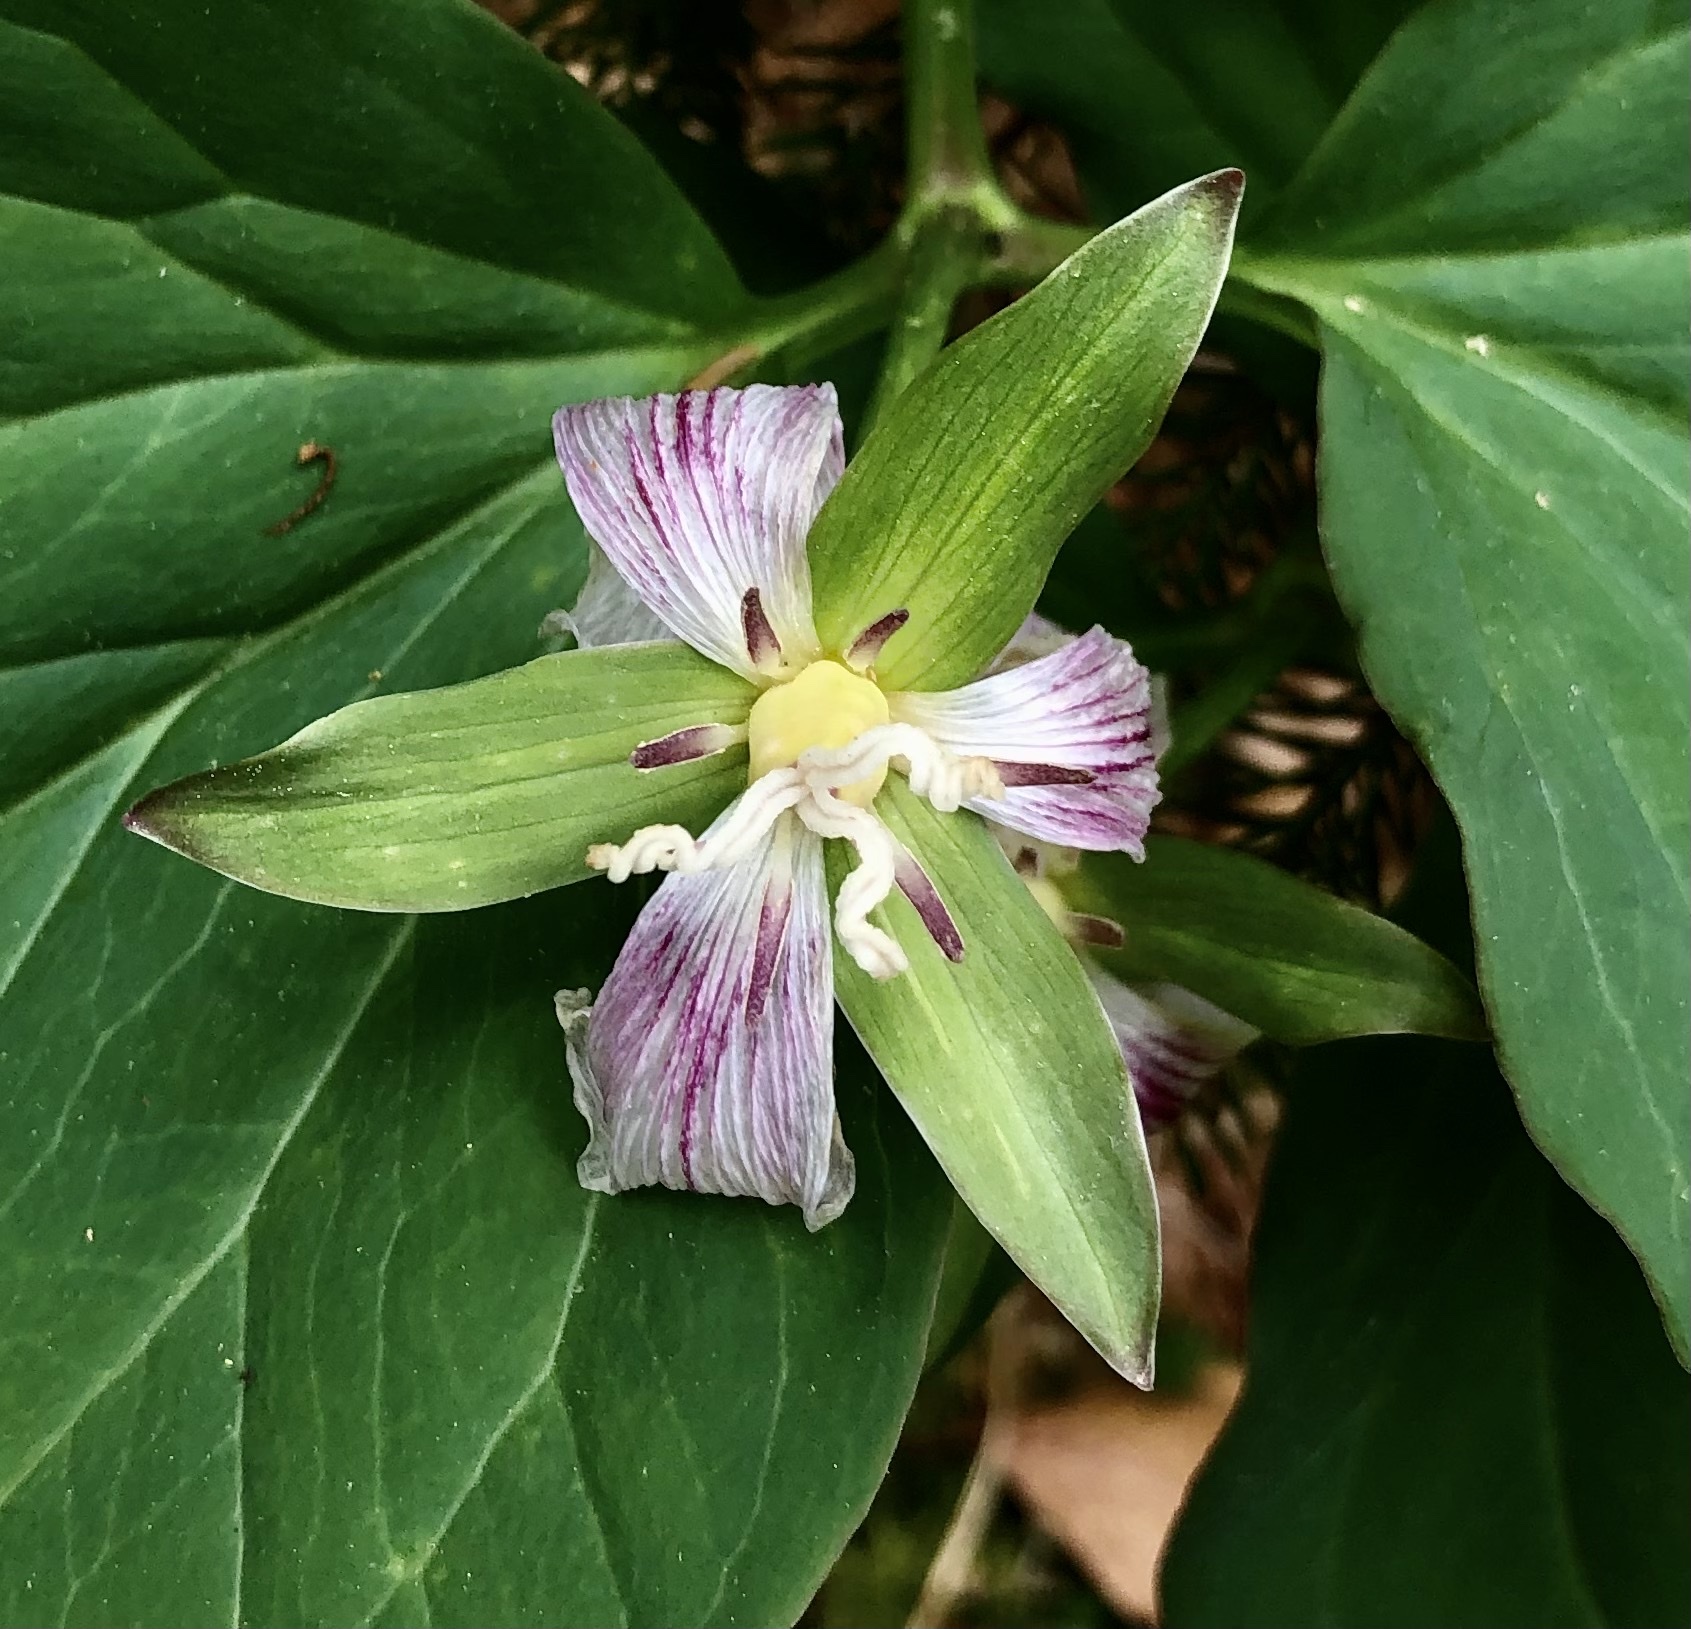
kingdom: Plantae
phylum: Tracheophyta
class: Liliopsida
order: Liliales
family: Melanthiaceae
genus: Trillium
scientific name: Trillium undulatum
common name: Paint trillium
